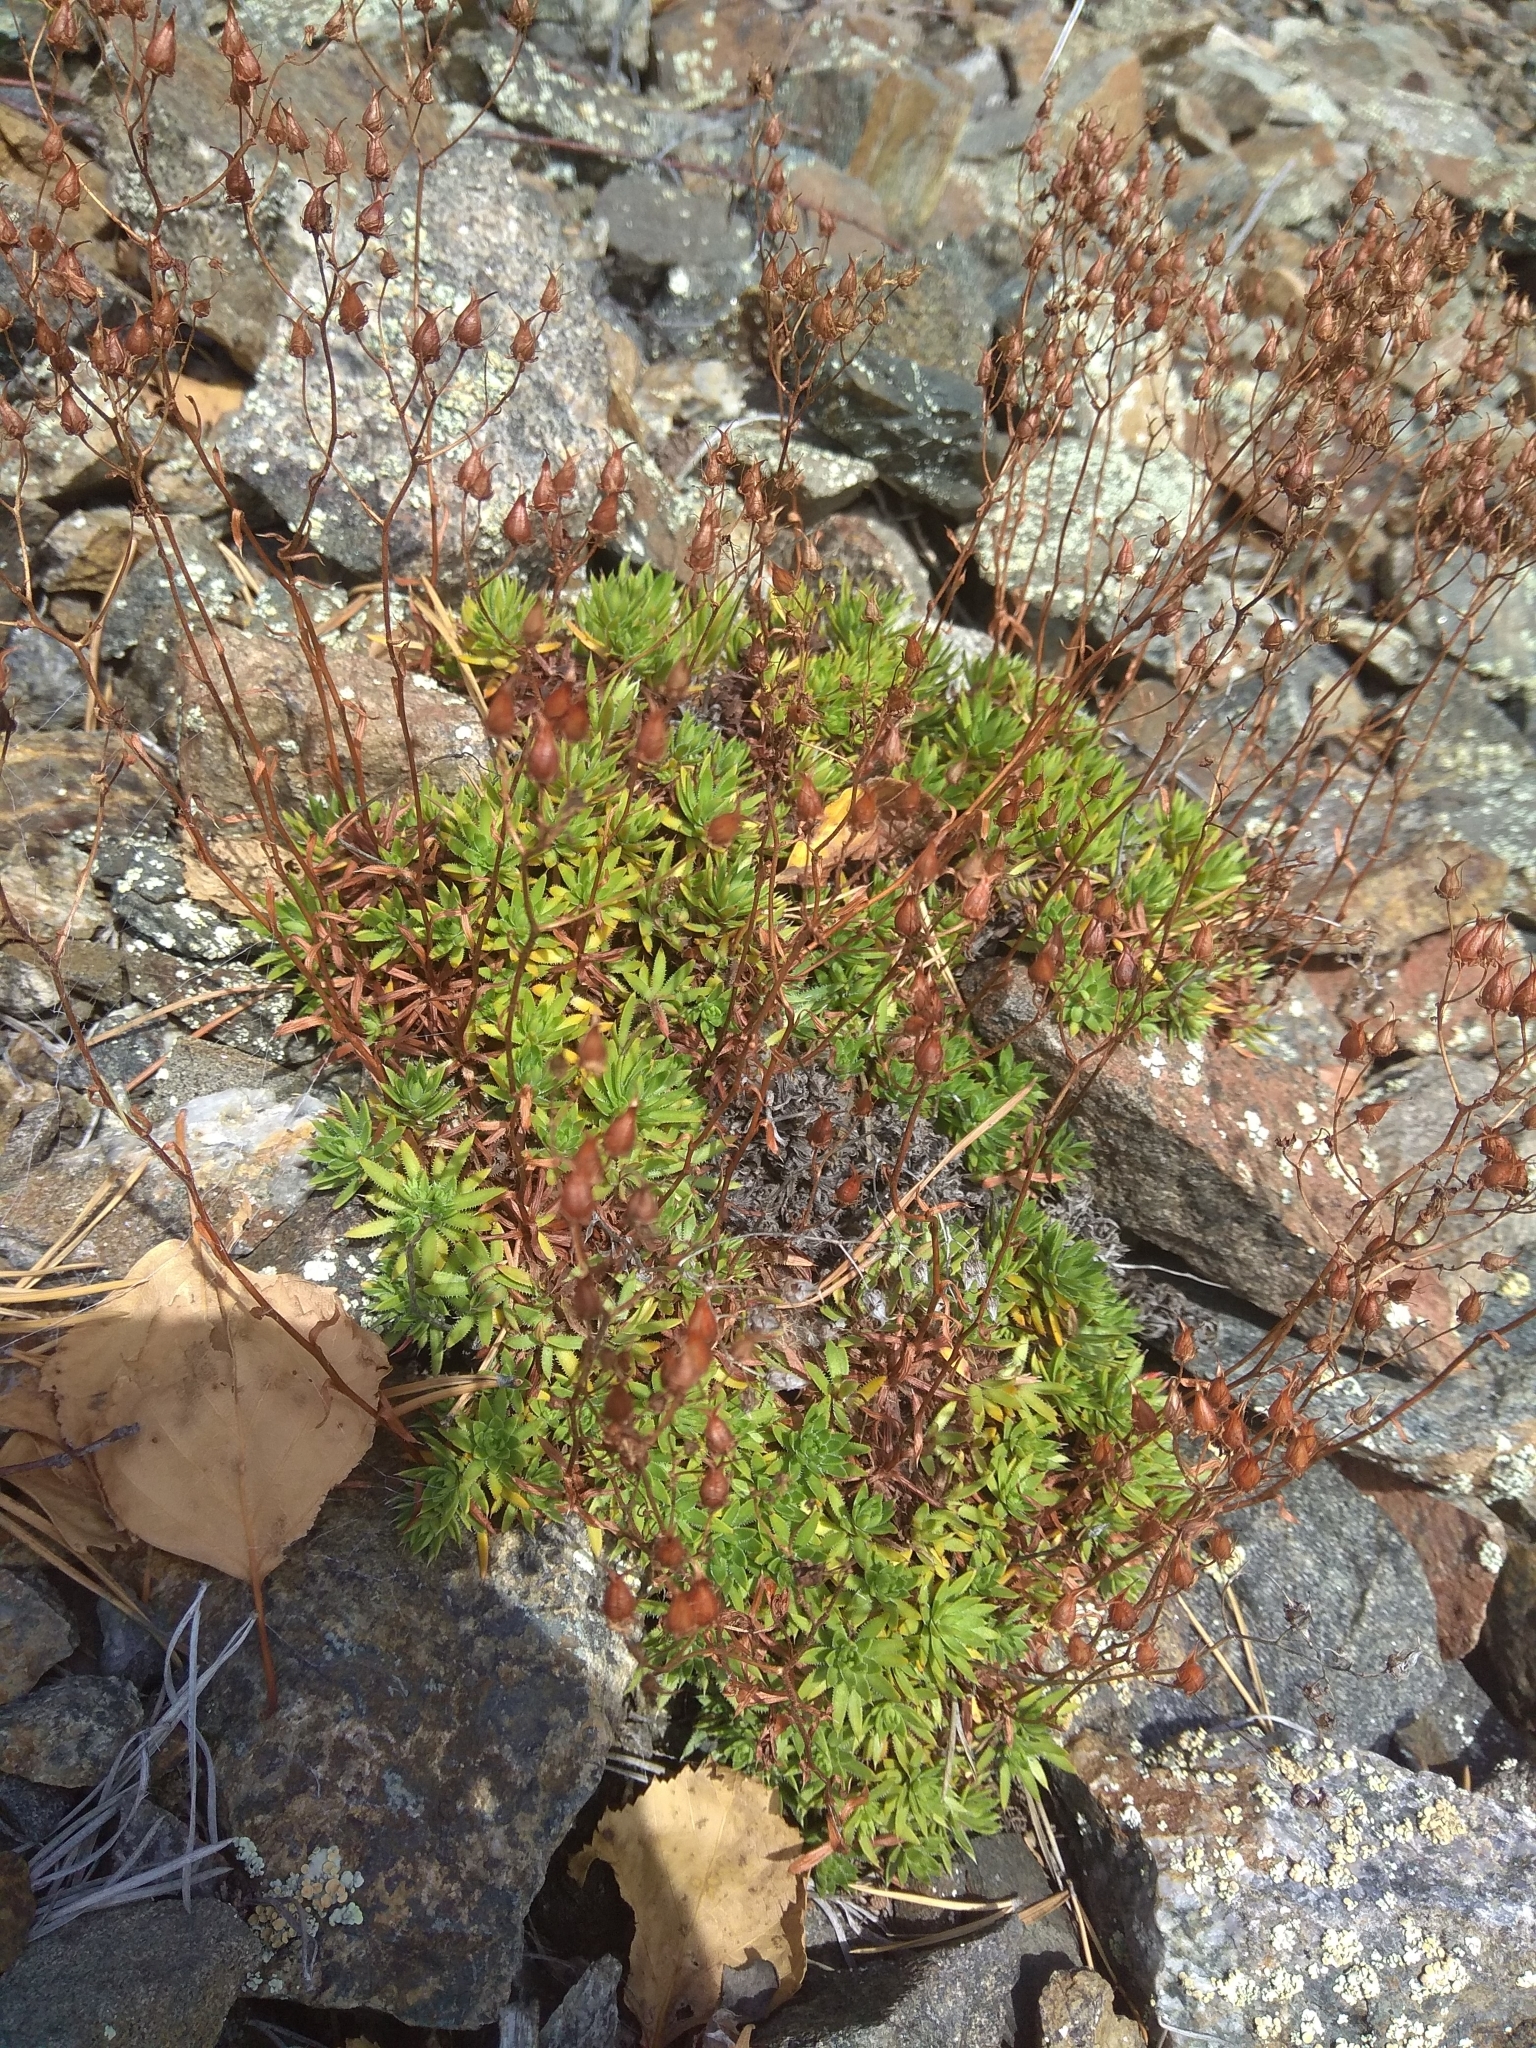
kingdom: Plantae
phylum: Tracheophyta
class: Magnoliopsida
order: Saxifragales
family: Saxifragaceae
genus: Saxifraga
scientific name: Saxifraga
